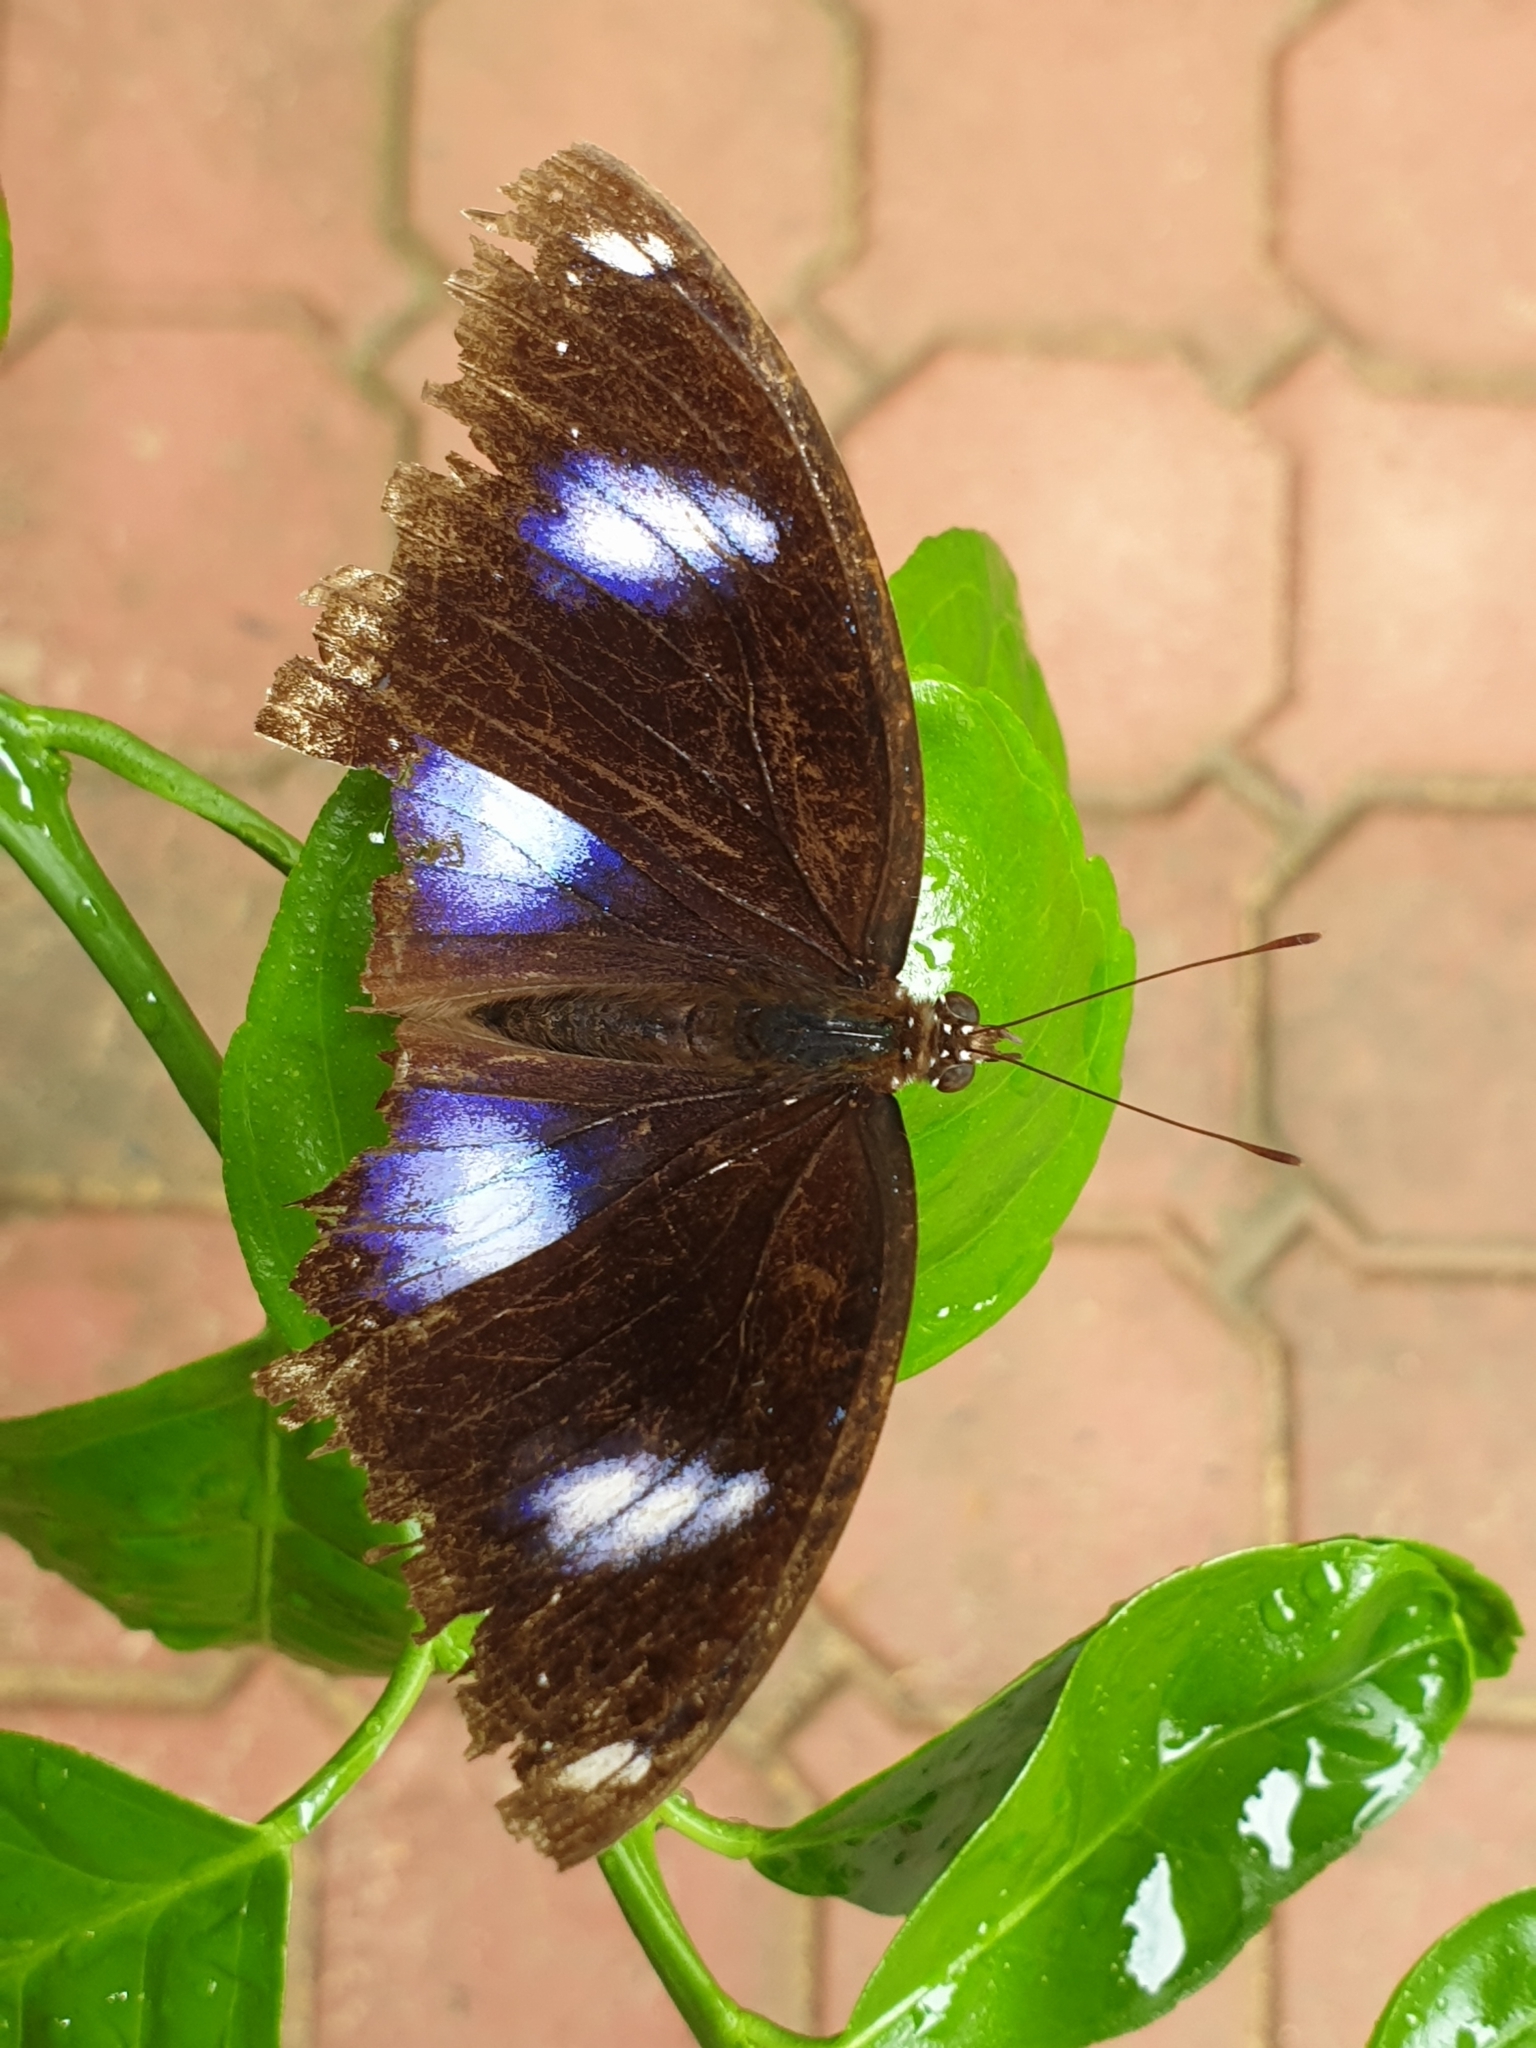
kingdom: Animalia
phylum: Arthropoda
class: Insecta
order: Lepidoptera
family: Nymphalidae
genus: Hypolimnas
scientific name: Hypolimnas bolina
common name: Great eggfly
